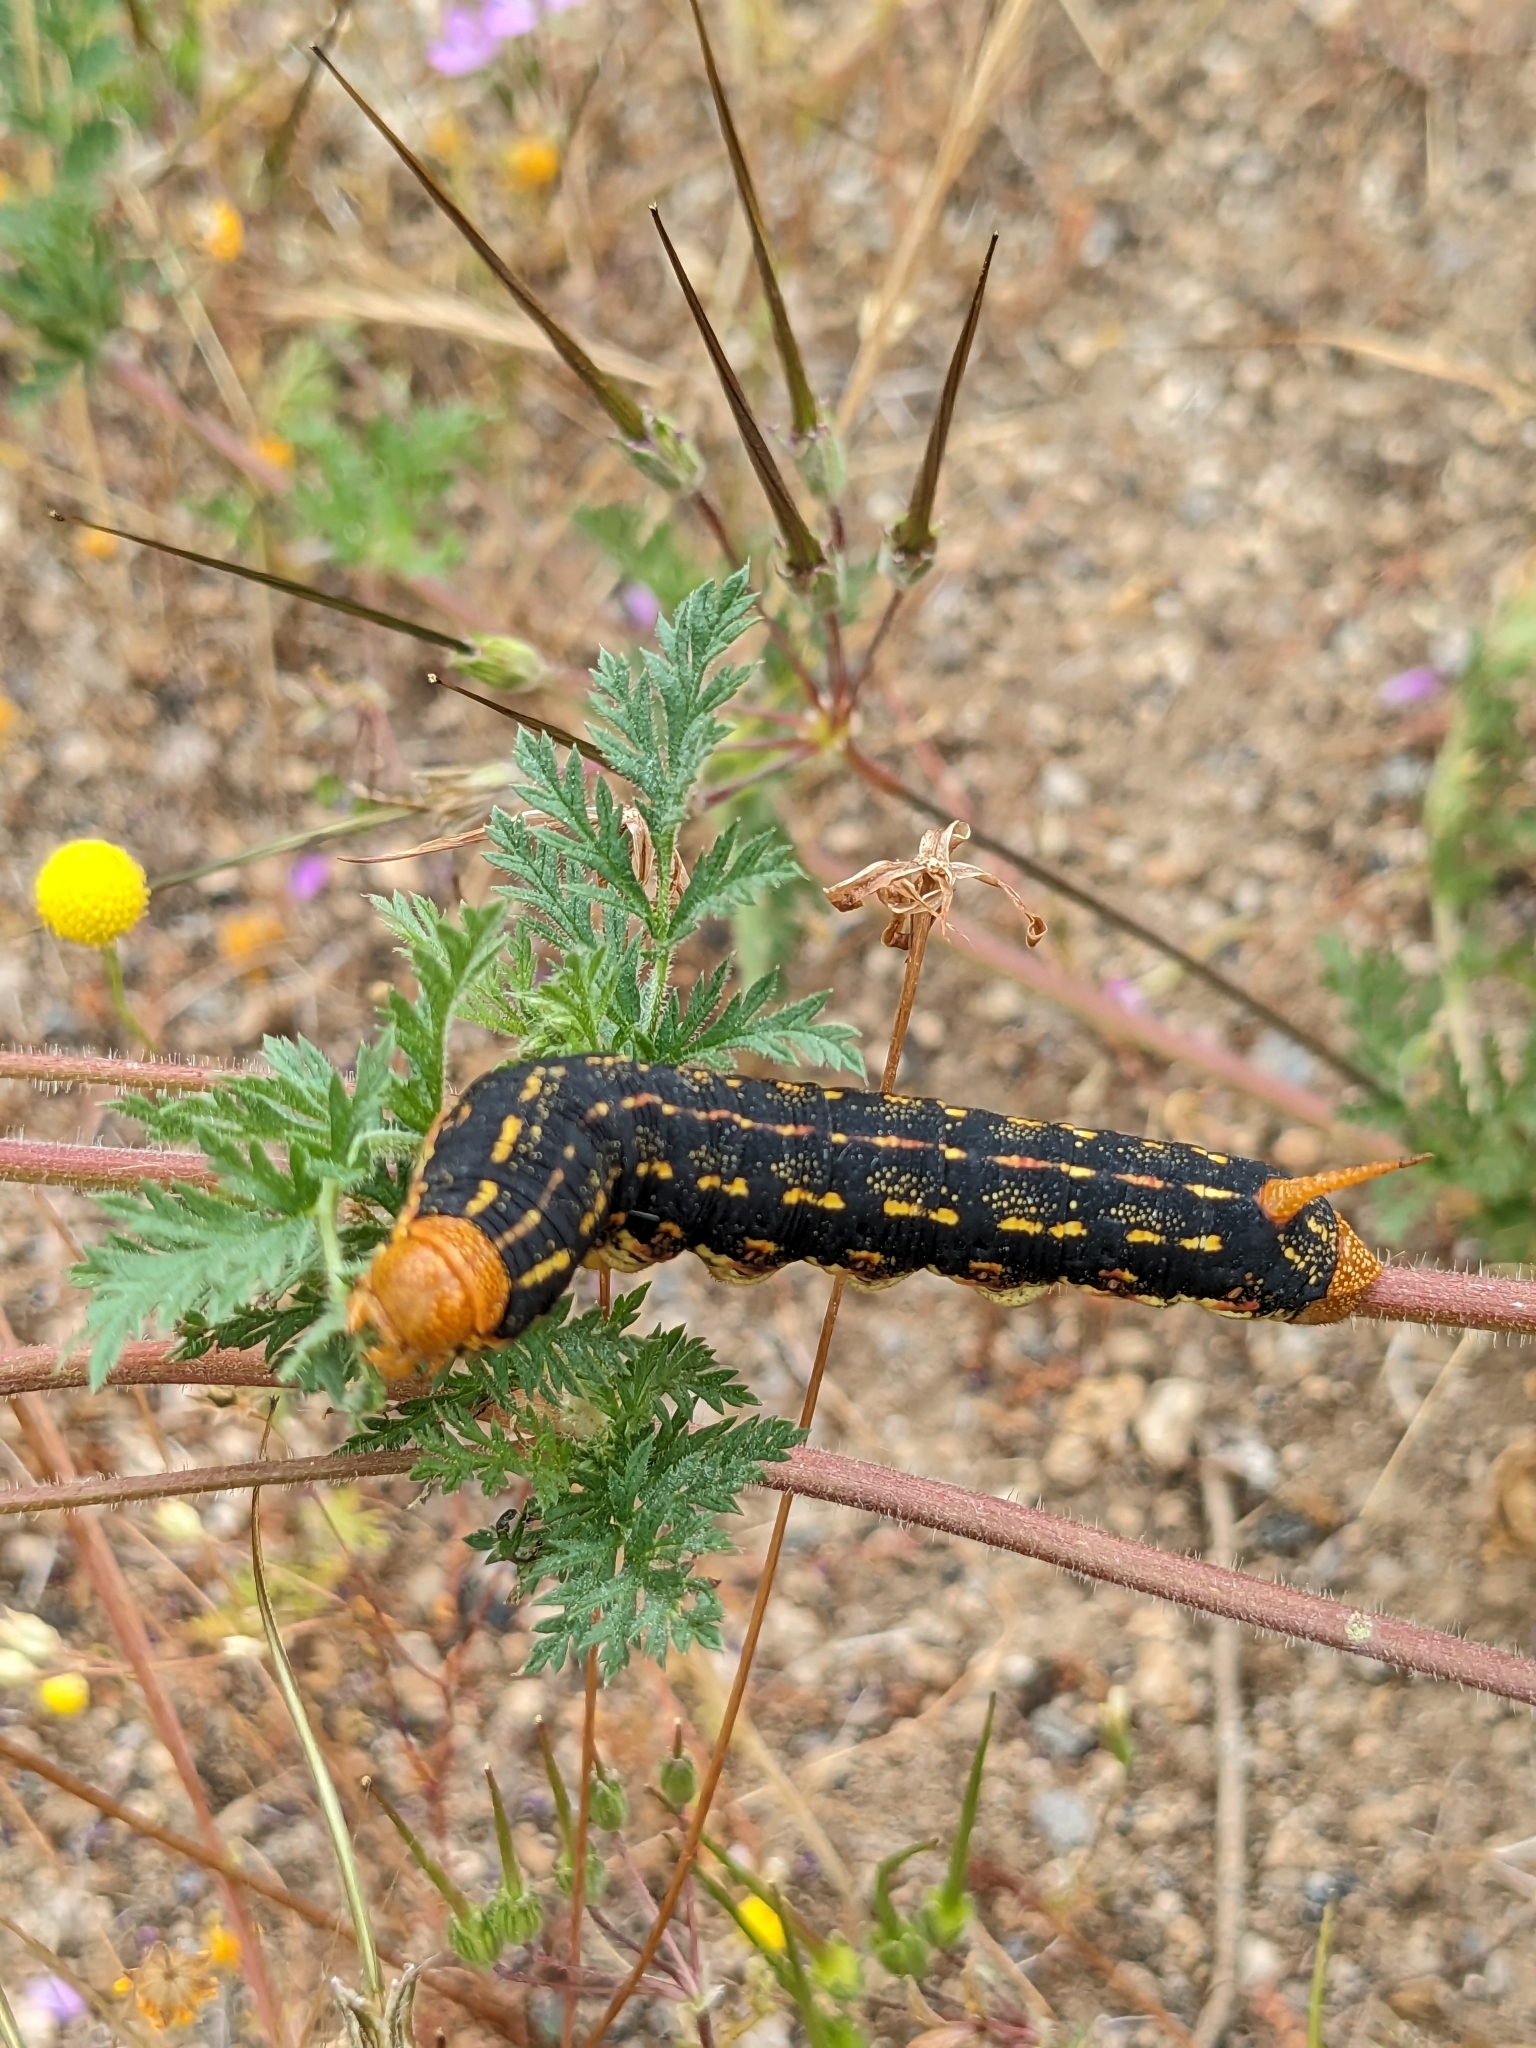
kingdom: Animalia
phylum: Arthropoda
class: Insecta
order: Lepidoptera
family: Sphingidae
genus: Hyles
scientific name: Hyles lineata
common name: White-lined sphinx
